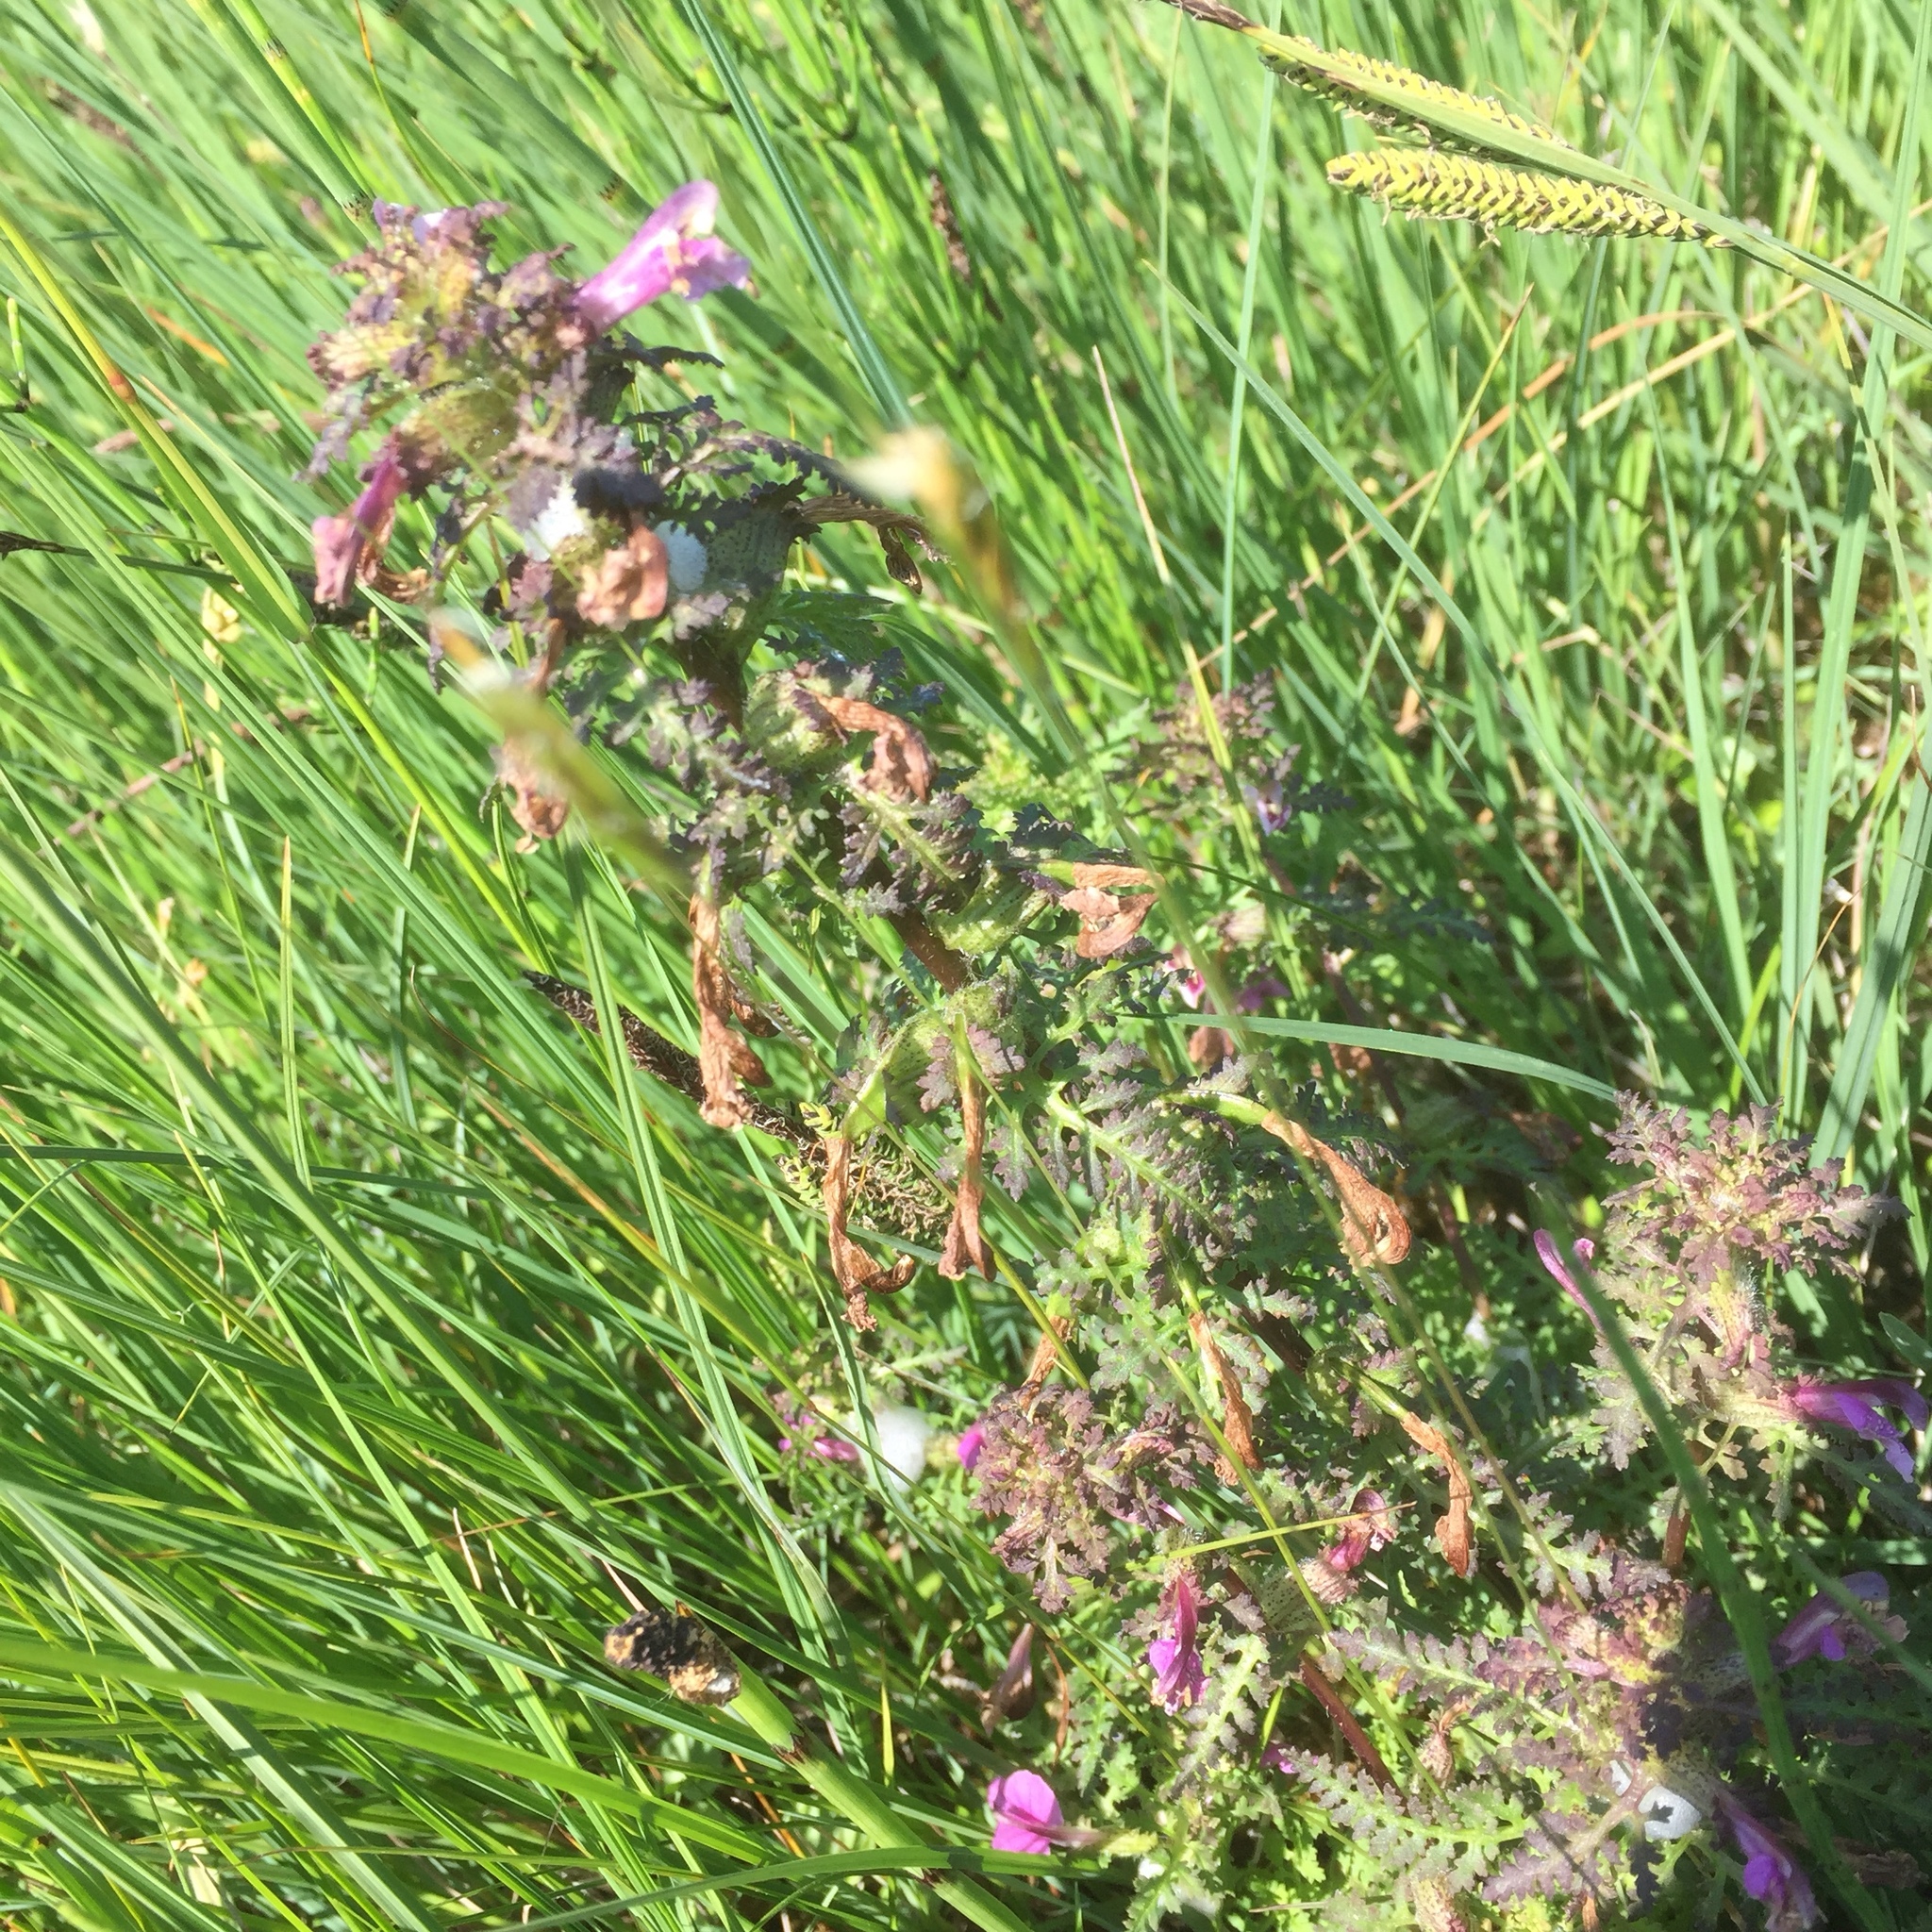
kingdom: Plantae
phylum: Tracheophyta
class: Magnoliopsida
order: Lamiales
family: Orobanchaceae
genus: Pedicularis
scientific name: Pedicularis palustris
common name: Marsh lousewort
